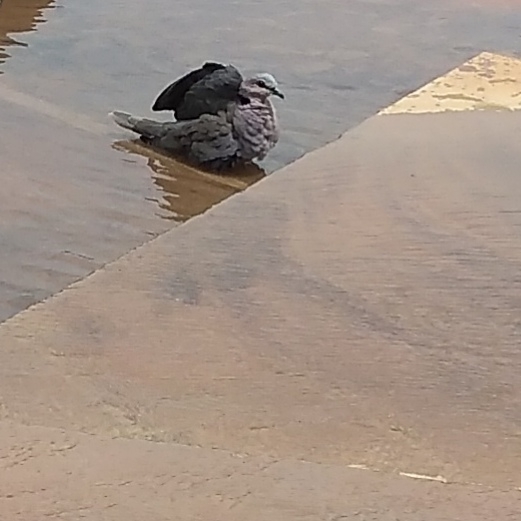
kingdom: Animalia
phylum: Chordata
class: Aves
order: Columbiformes
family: Columbidae
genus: Streptopelia
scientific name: Streptopelia semitorquata
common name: Red-eyed dove
